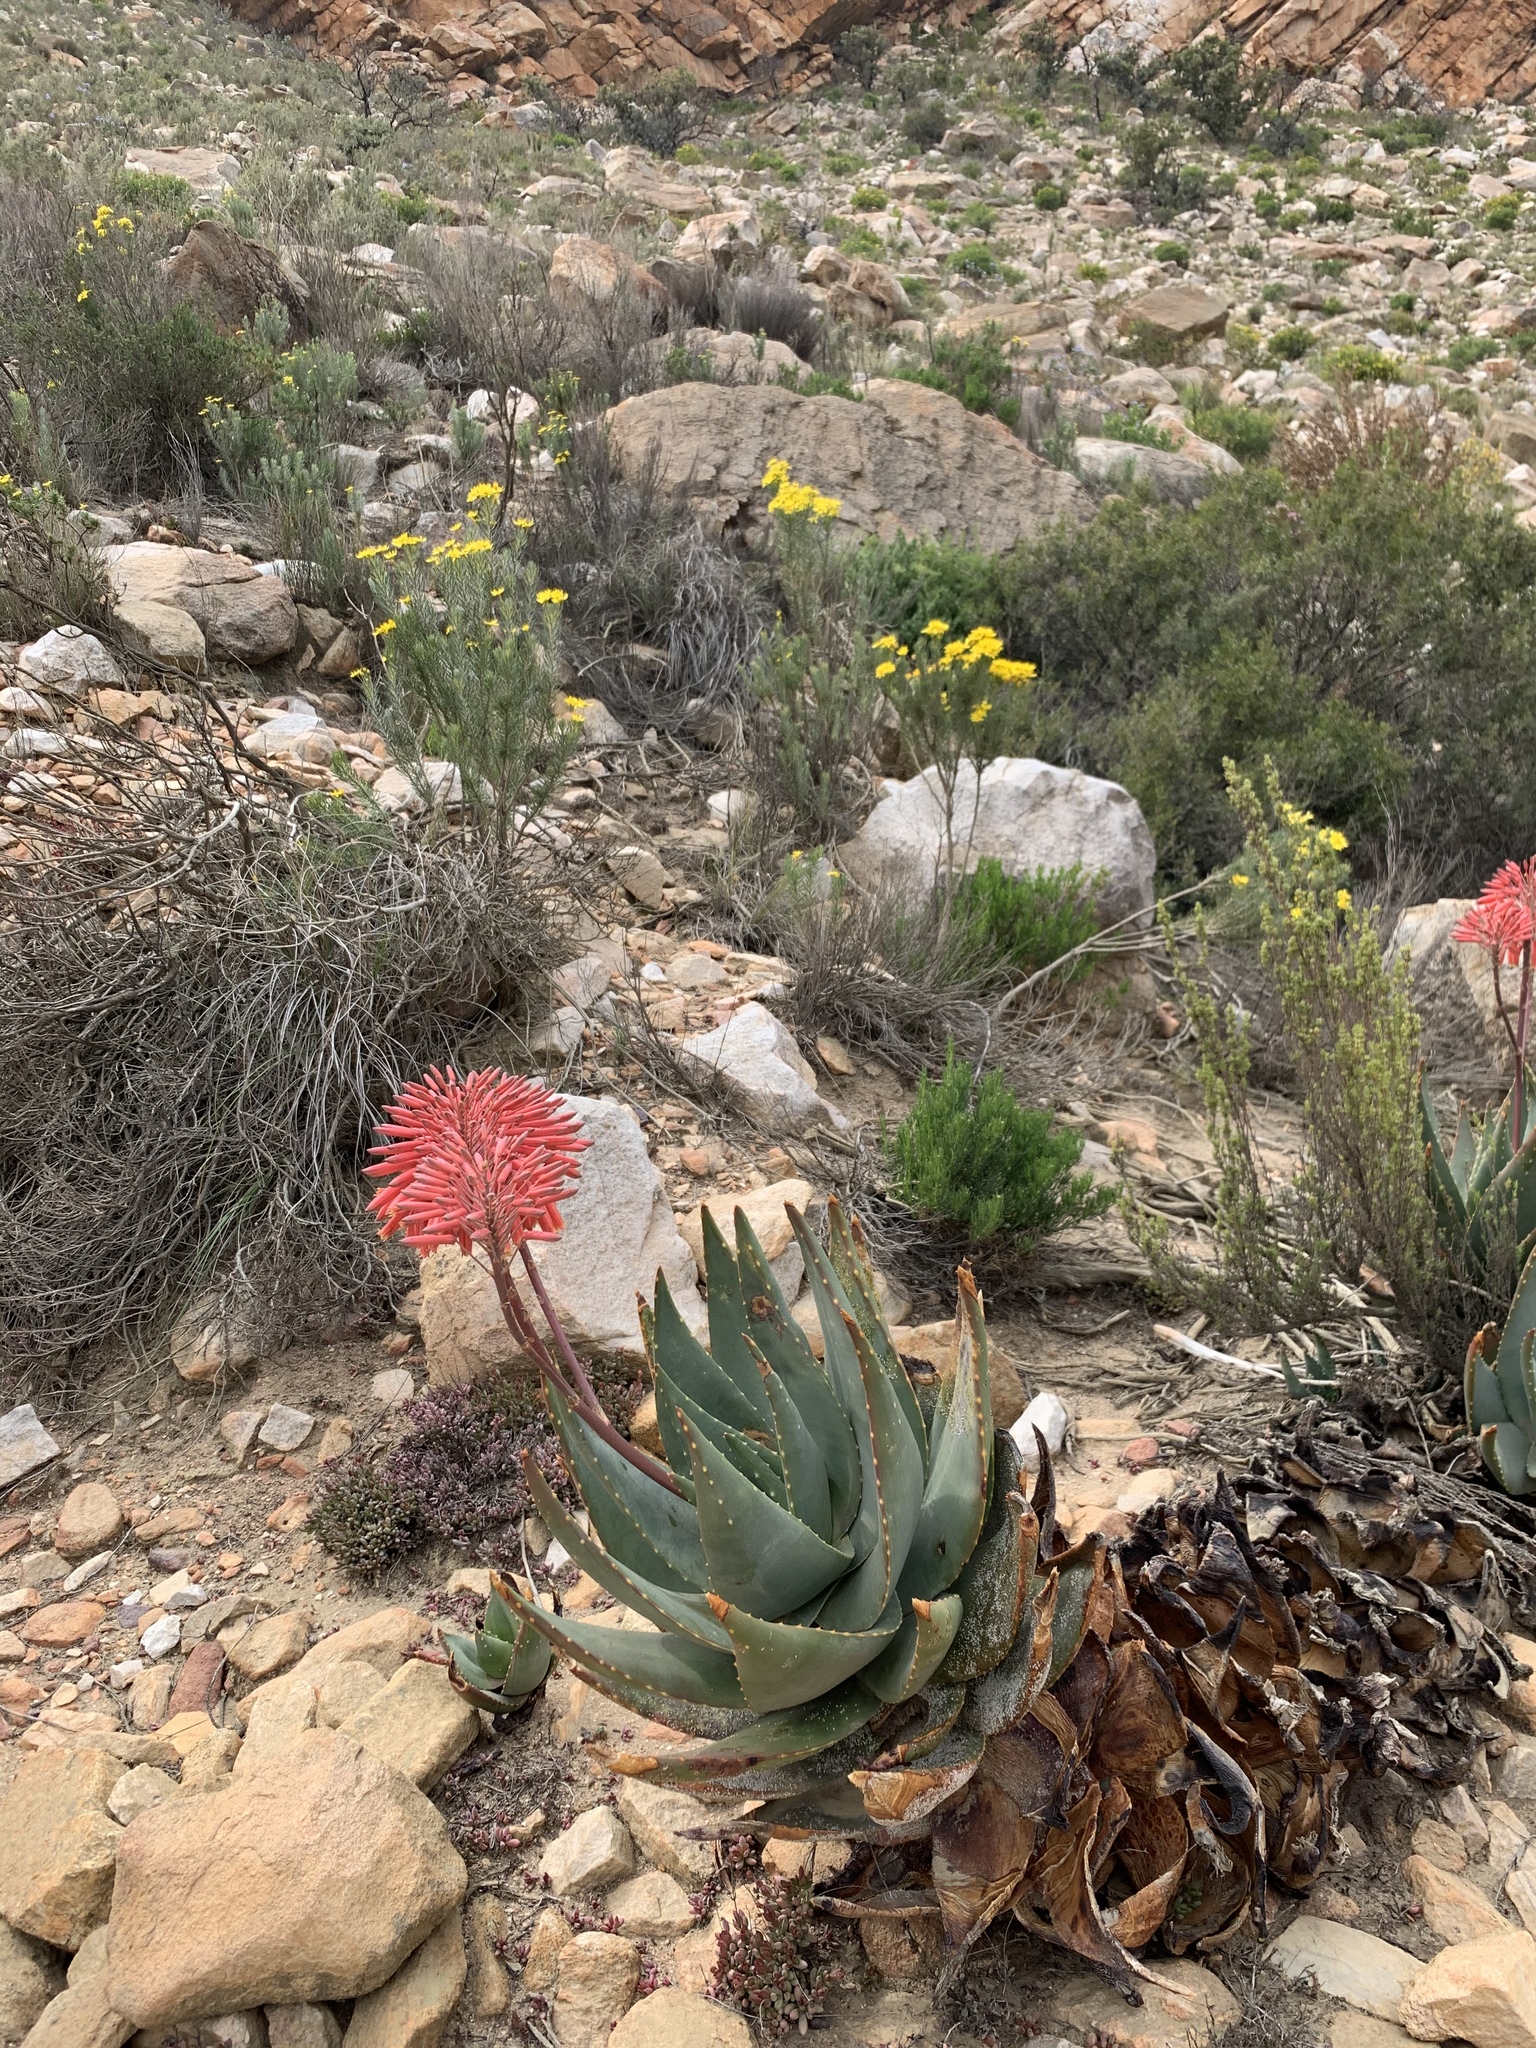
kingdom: Plantae
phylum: Tracheophyta
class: Liliopsida
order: Asparagales
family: Asphodelaceae
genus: Aloe
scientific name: Aloe comptonii
